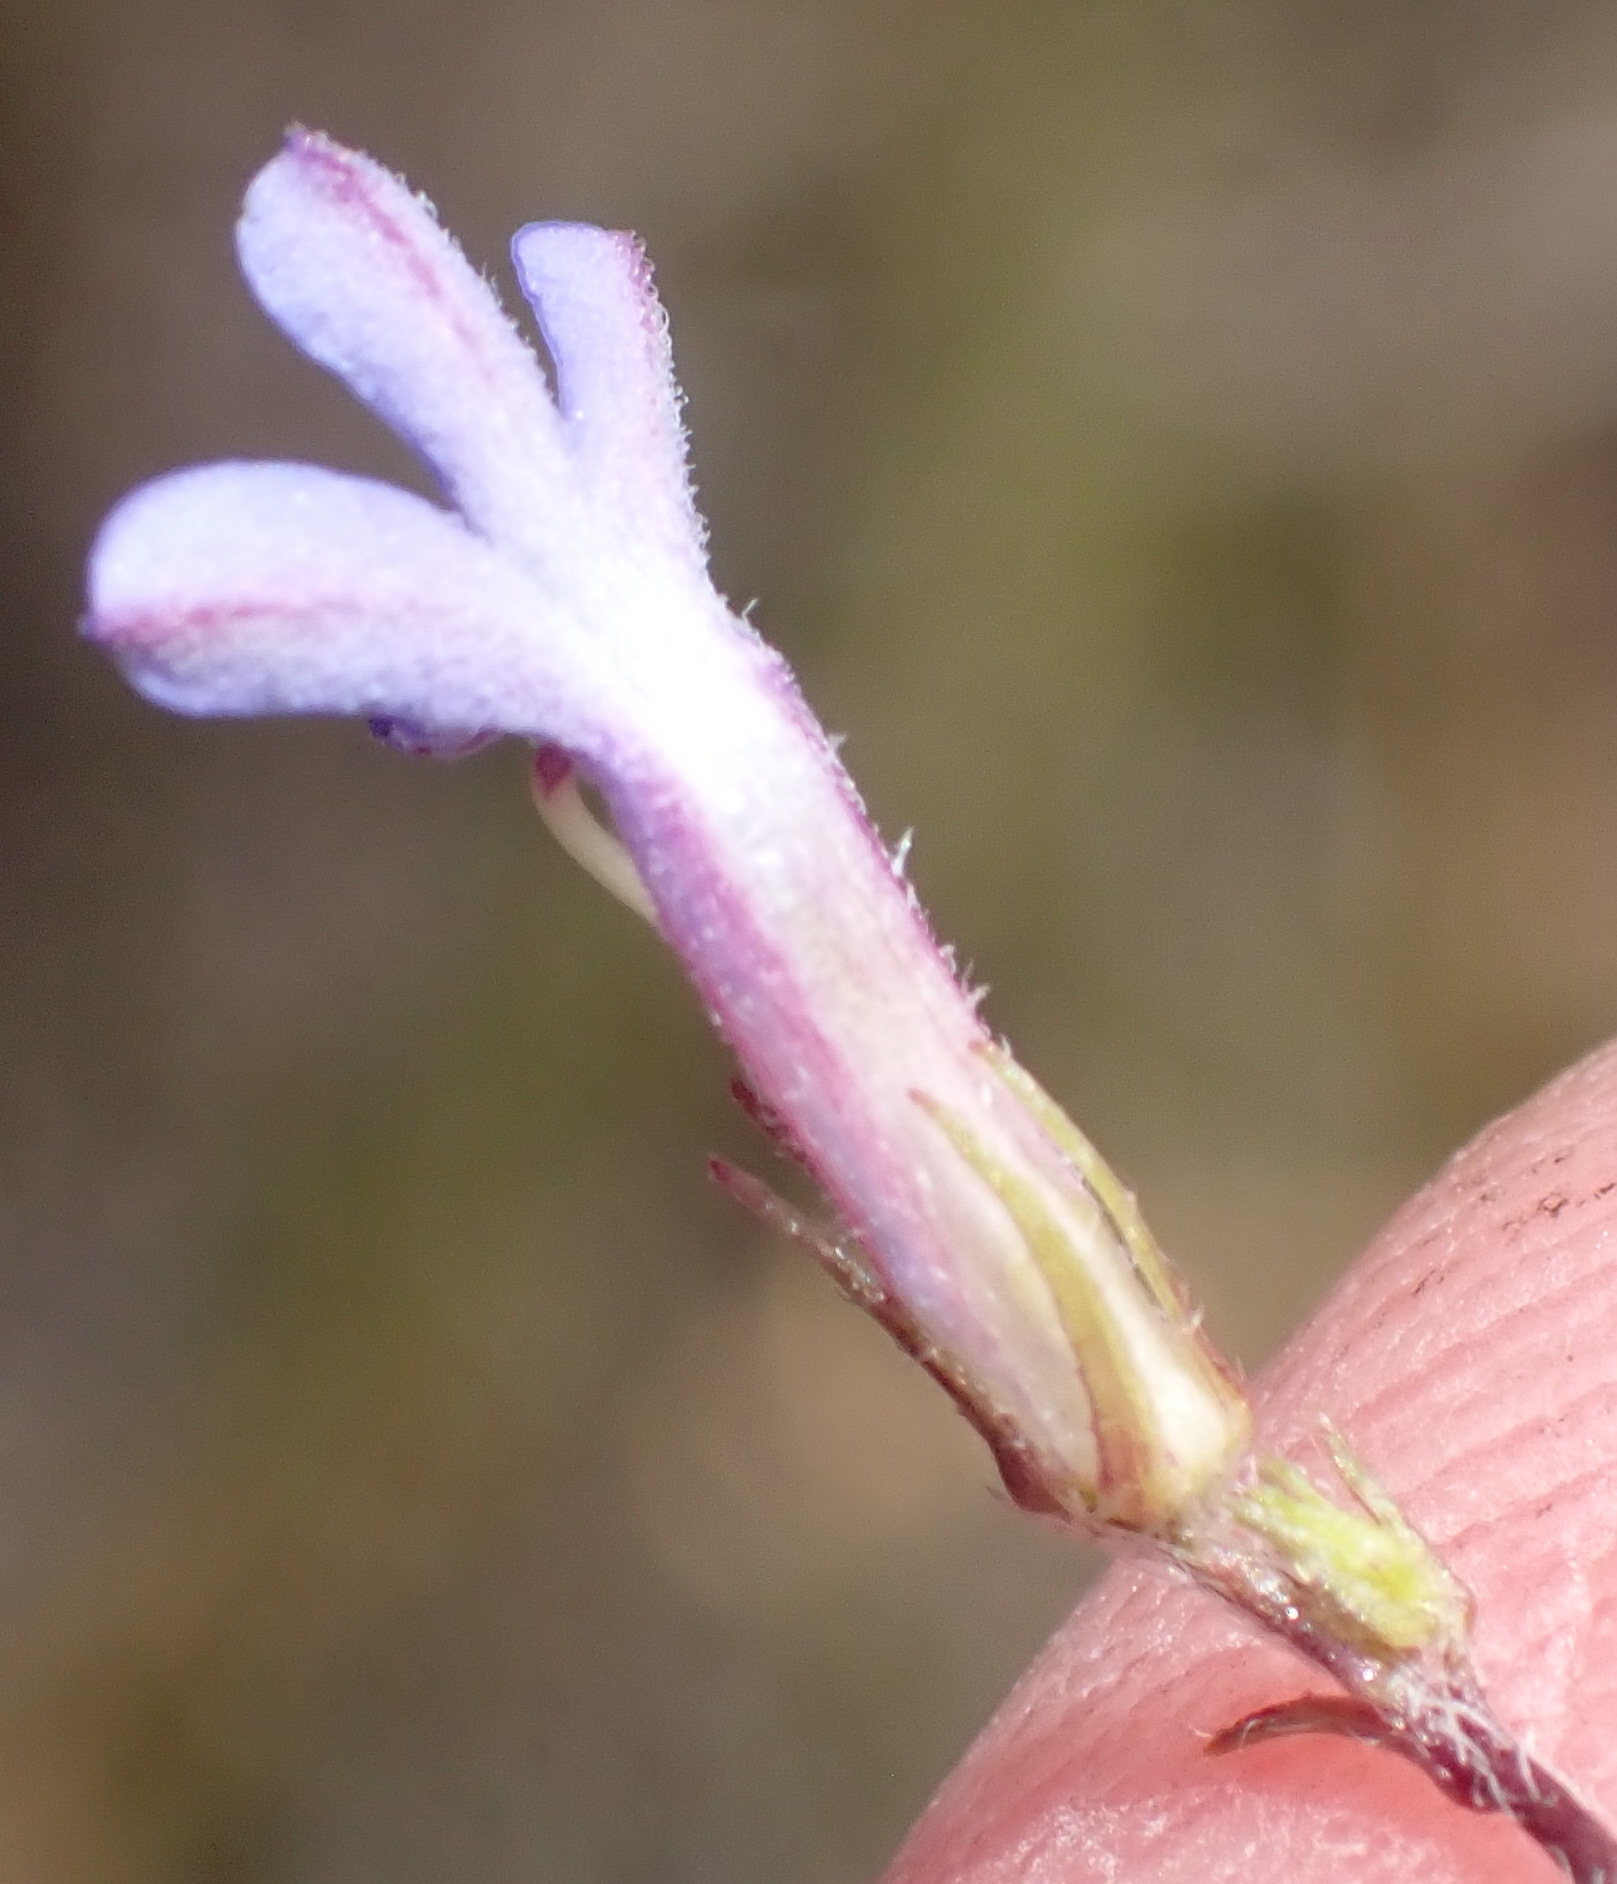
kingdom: Plantae
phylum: Tracheophyta
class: Magnoliopsida
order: Asterales
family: Campanulaceae
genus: Lobelia
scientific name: Lobelia neglecta
